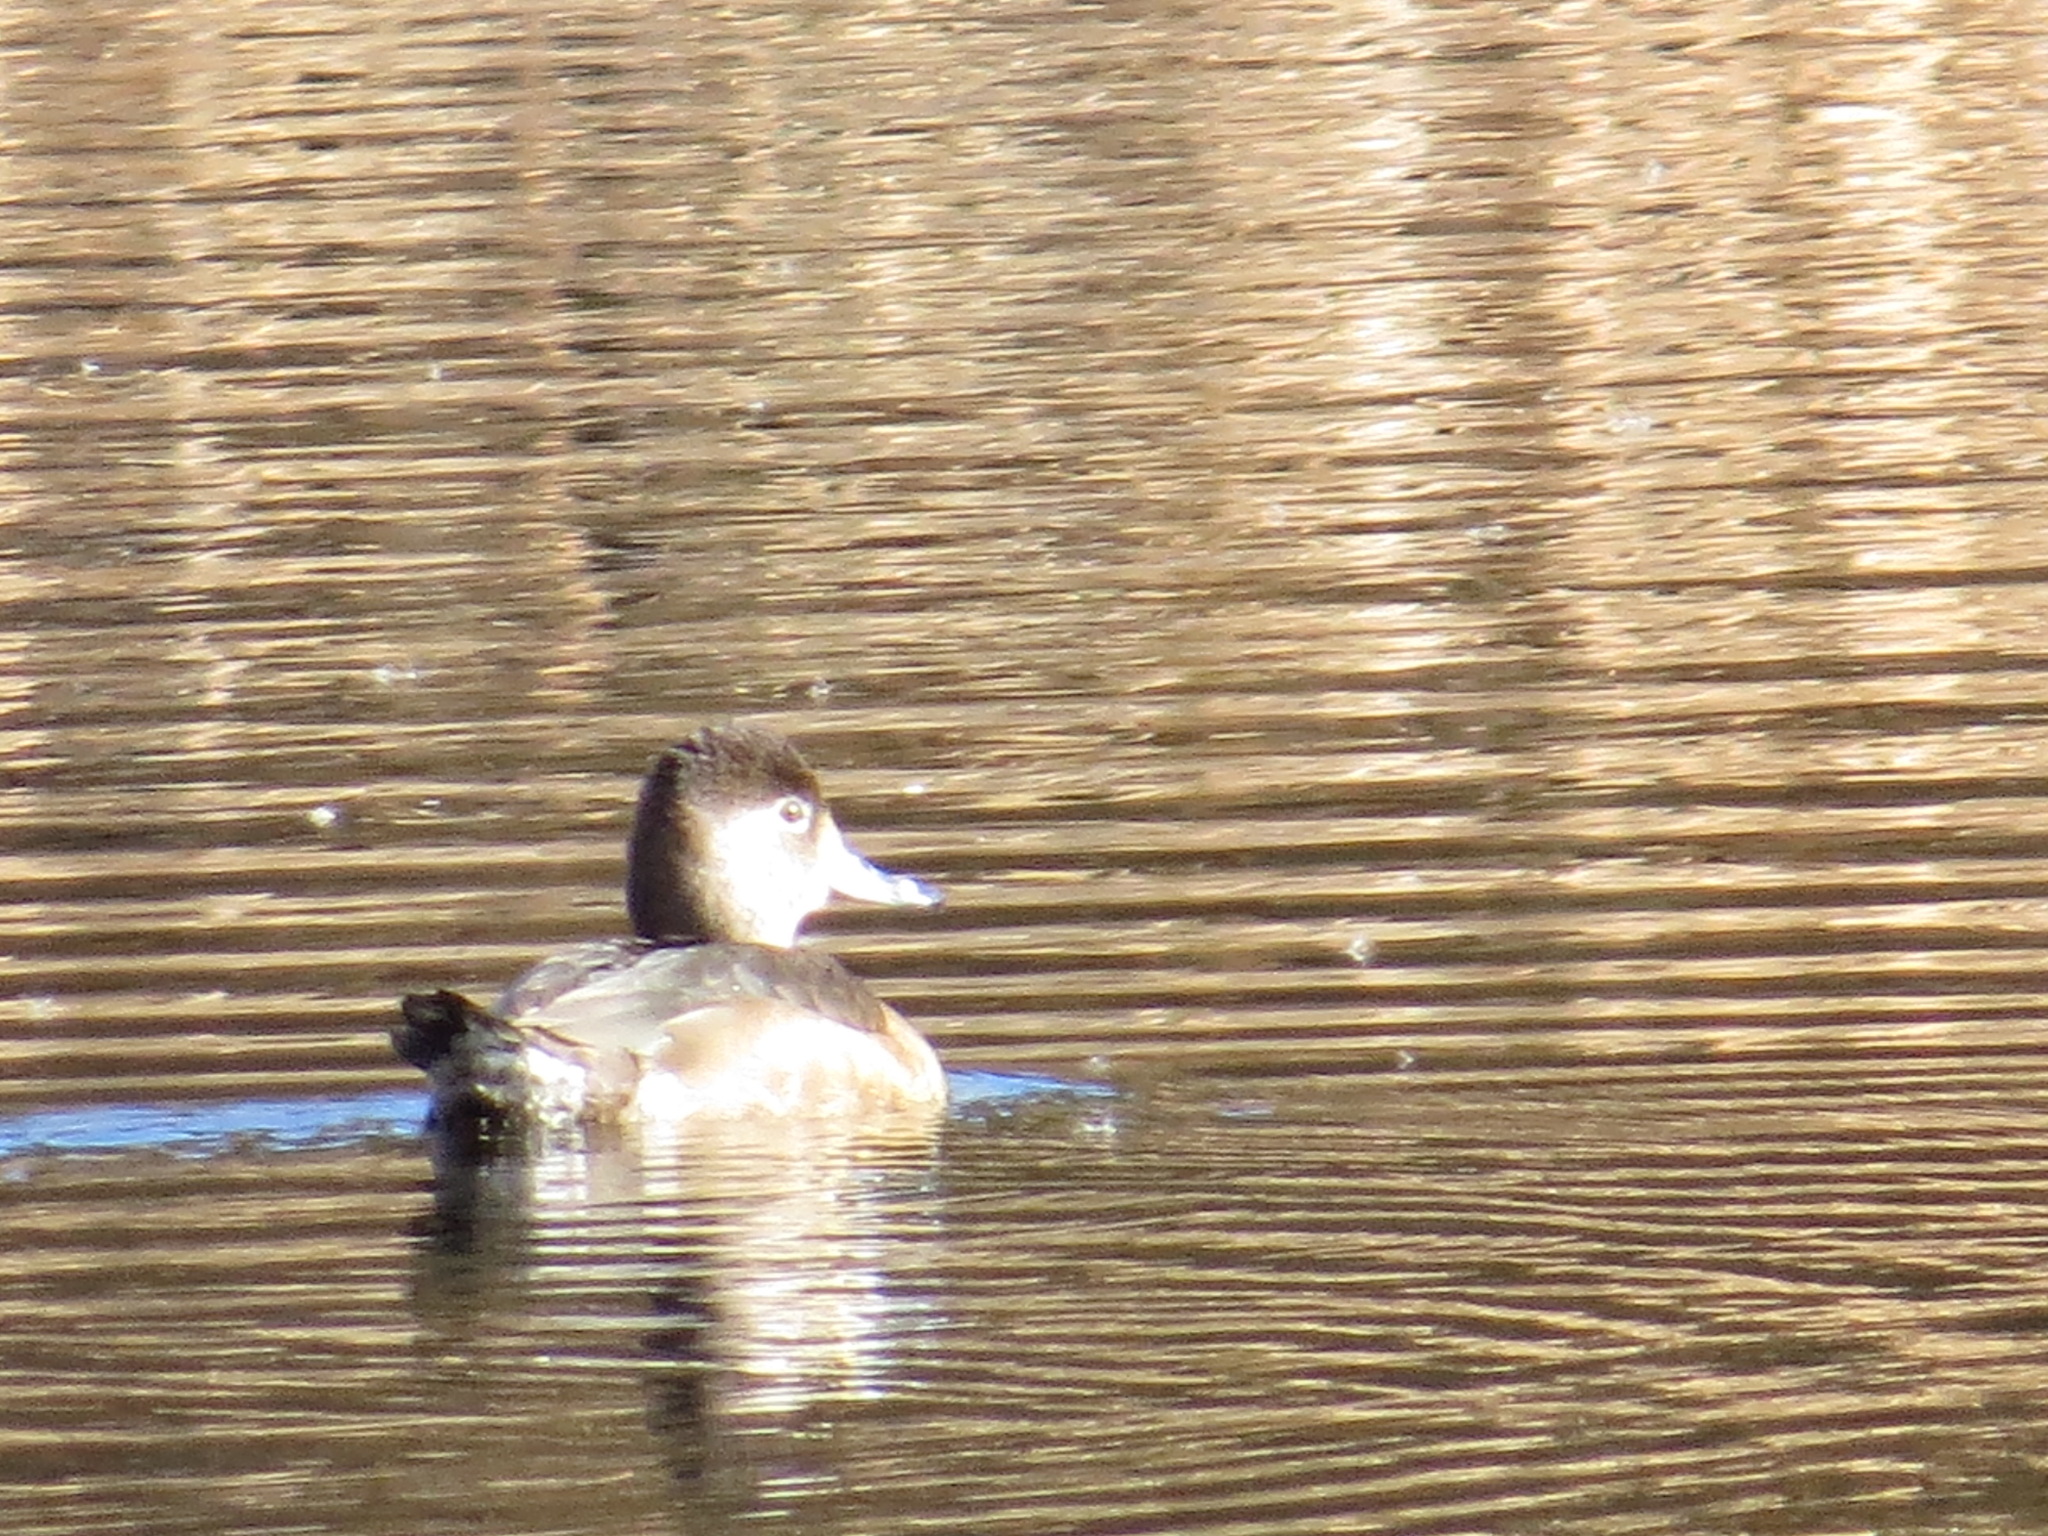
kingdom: Animalia
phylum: Chordata
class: Aves
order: Anseriformes
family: Anatidae
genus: Aythya
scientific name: Aythya collaris
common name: Ring-necked duck
